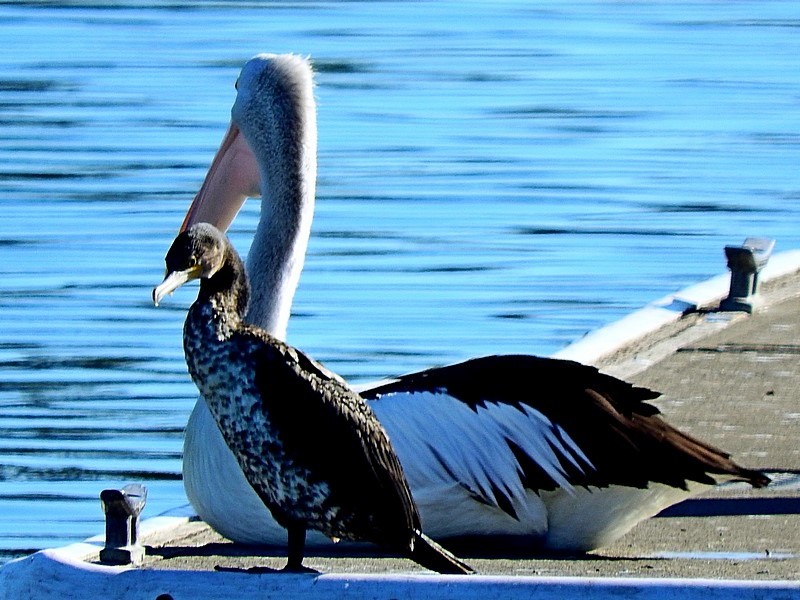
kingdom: Animalia
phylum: Chordata
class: Aves
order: Suliformes
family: Phalacrocoracidae
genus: Phalacrocorax
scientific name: Phalacrocorax carbo
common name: Great cormorant
